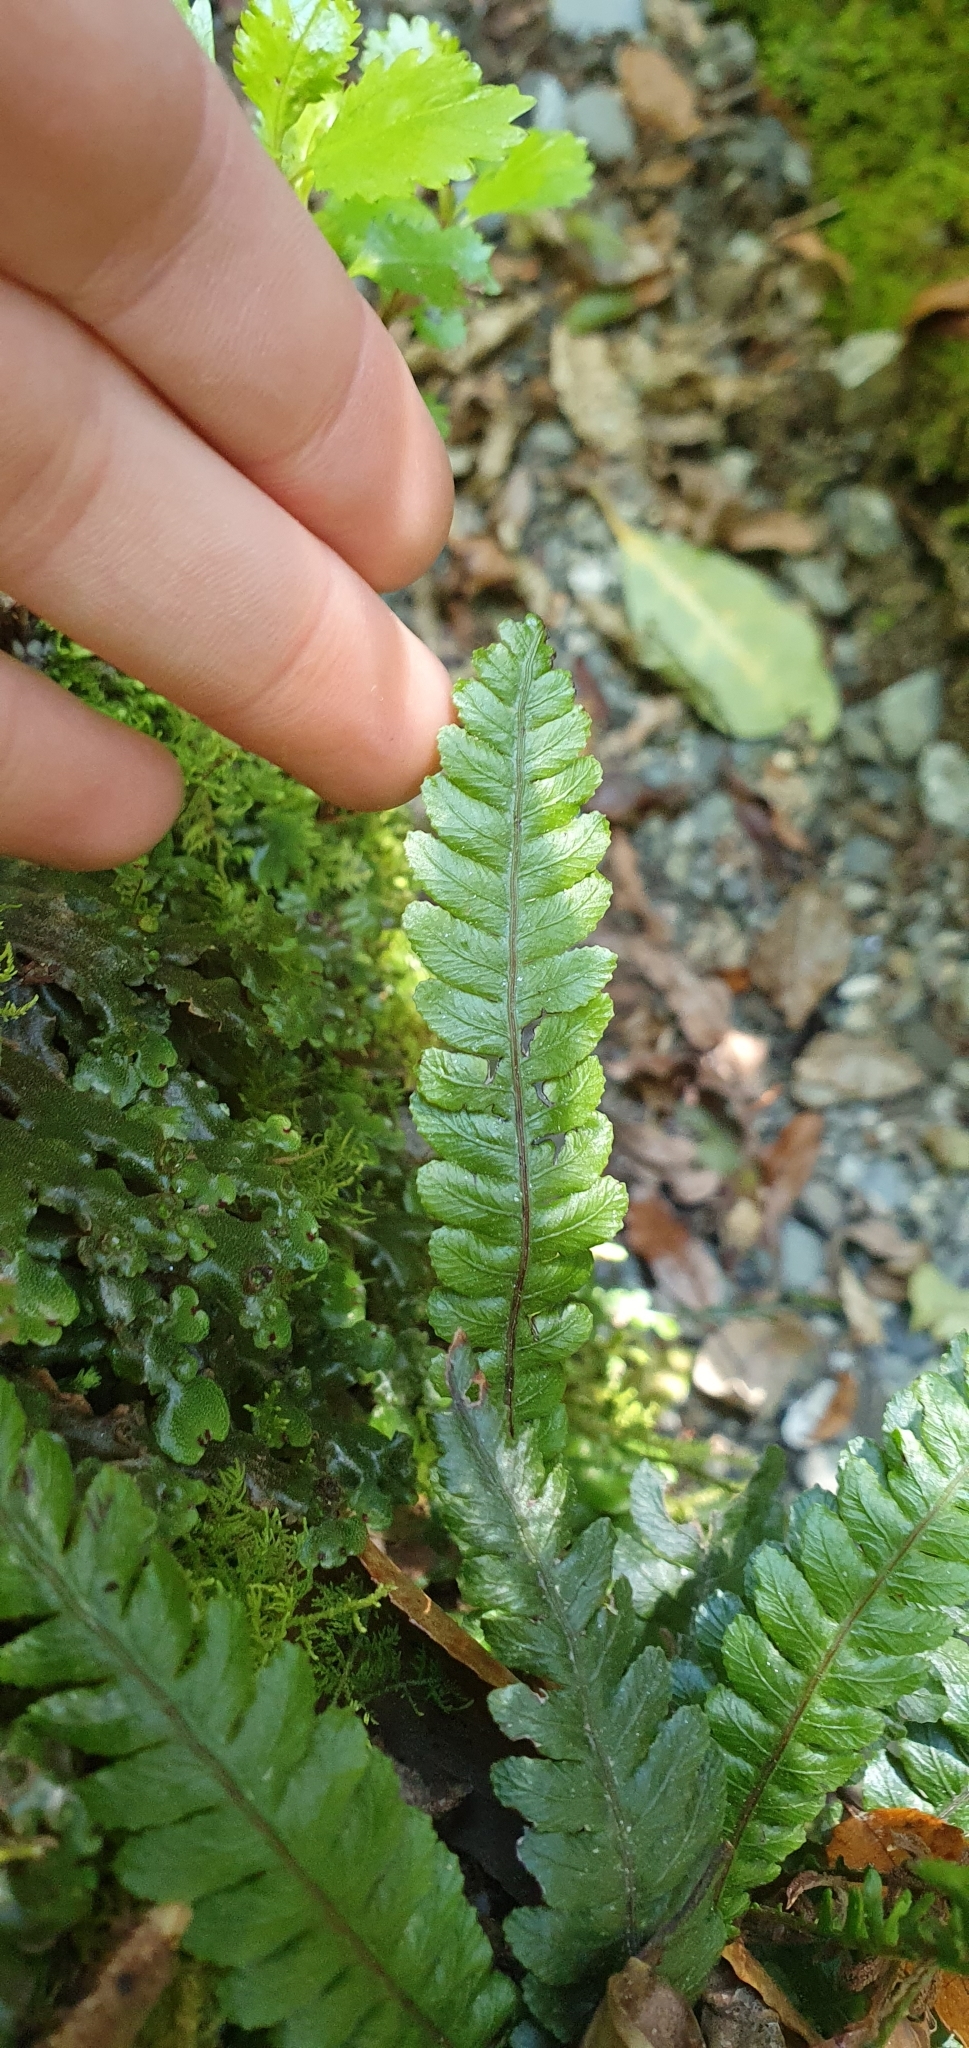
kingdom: Plantae
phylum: Tracheophyta
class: Polypodiopsida
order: Polypodiales
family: Blechnaceae
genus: Austroblechnum
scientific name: Austroblechnum membranaceum
